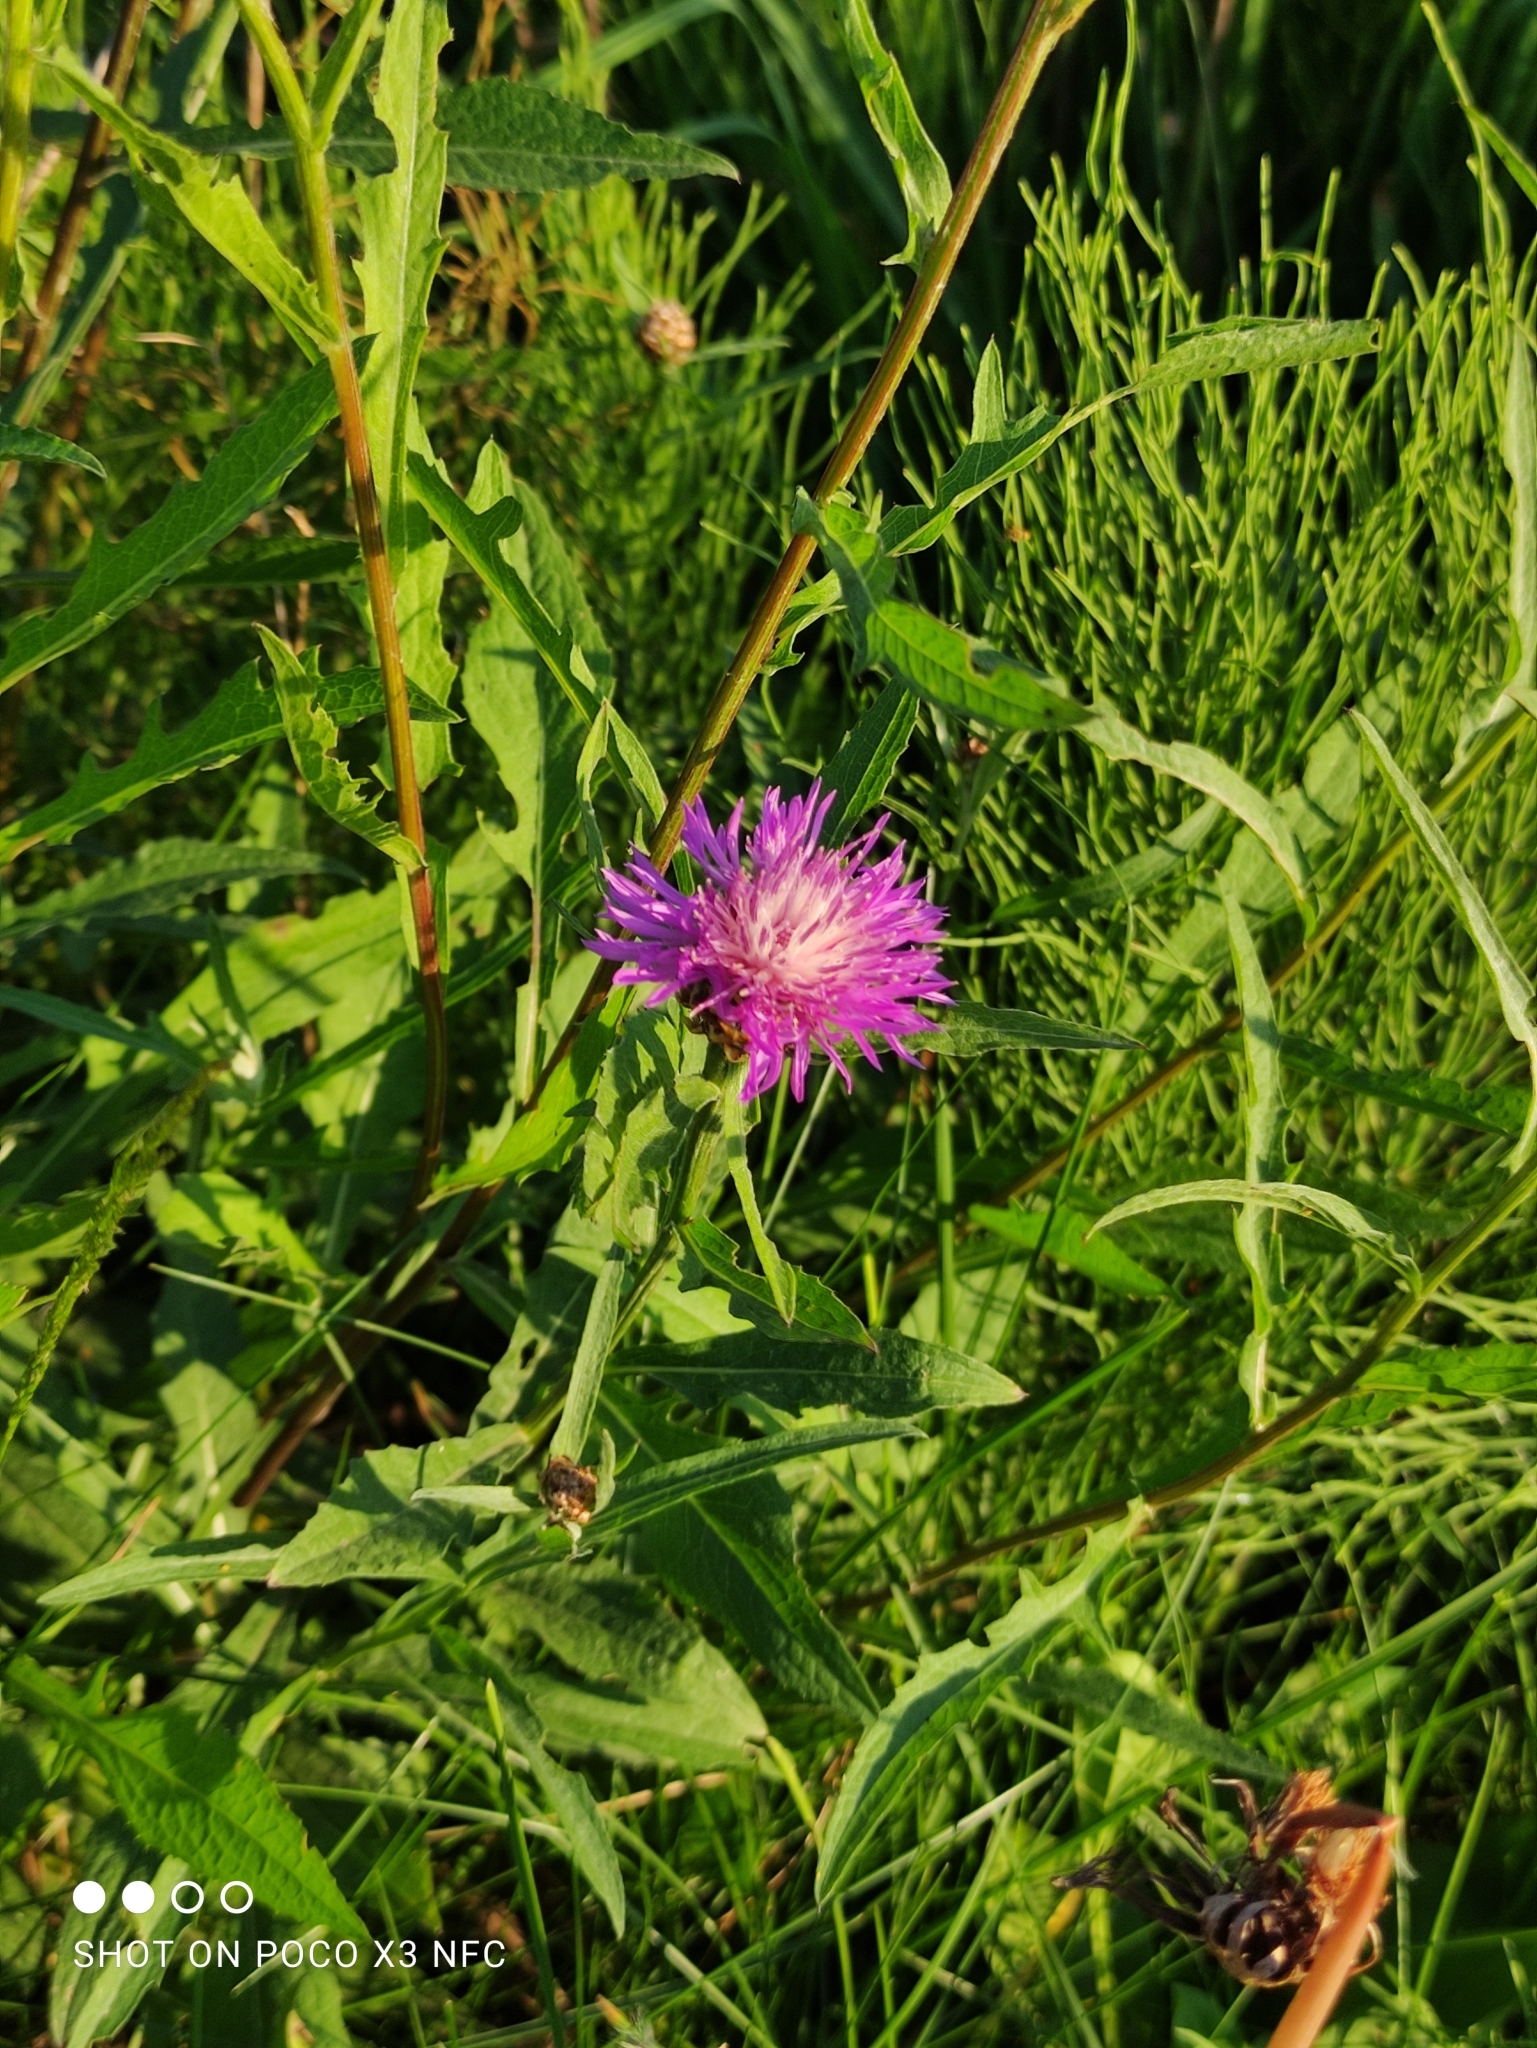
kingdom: Plantae
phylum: Tracheophyta
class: Magnoliopsida
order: Asterales
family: Asteraceae
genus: Centaurea
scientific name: Centaurea jacea
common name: Brown knapweed
